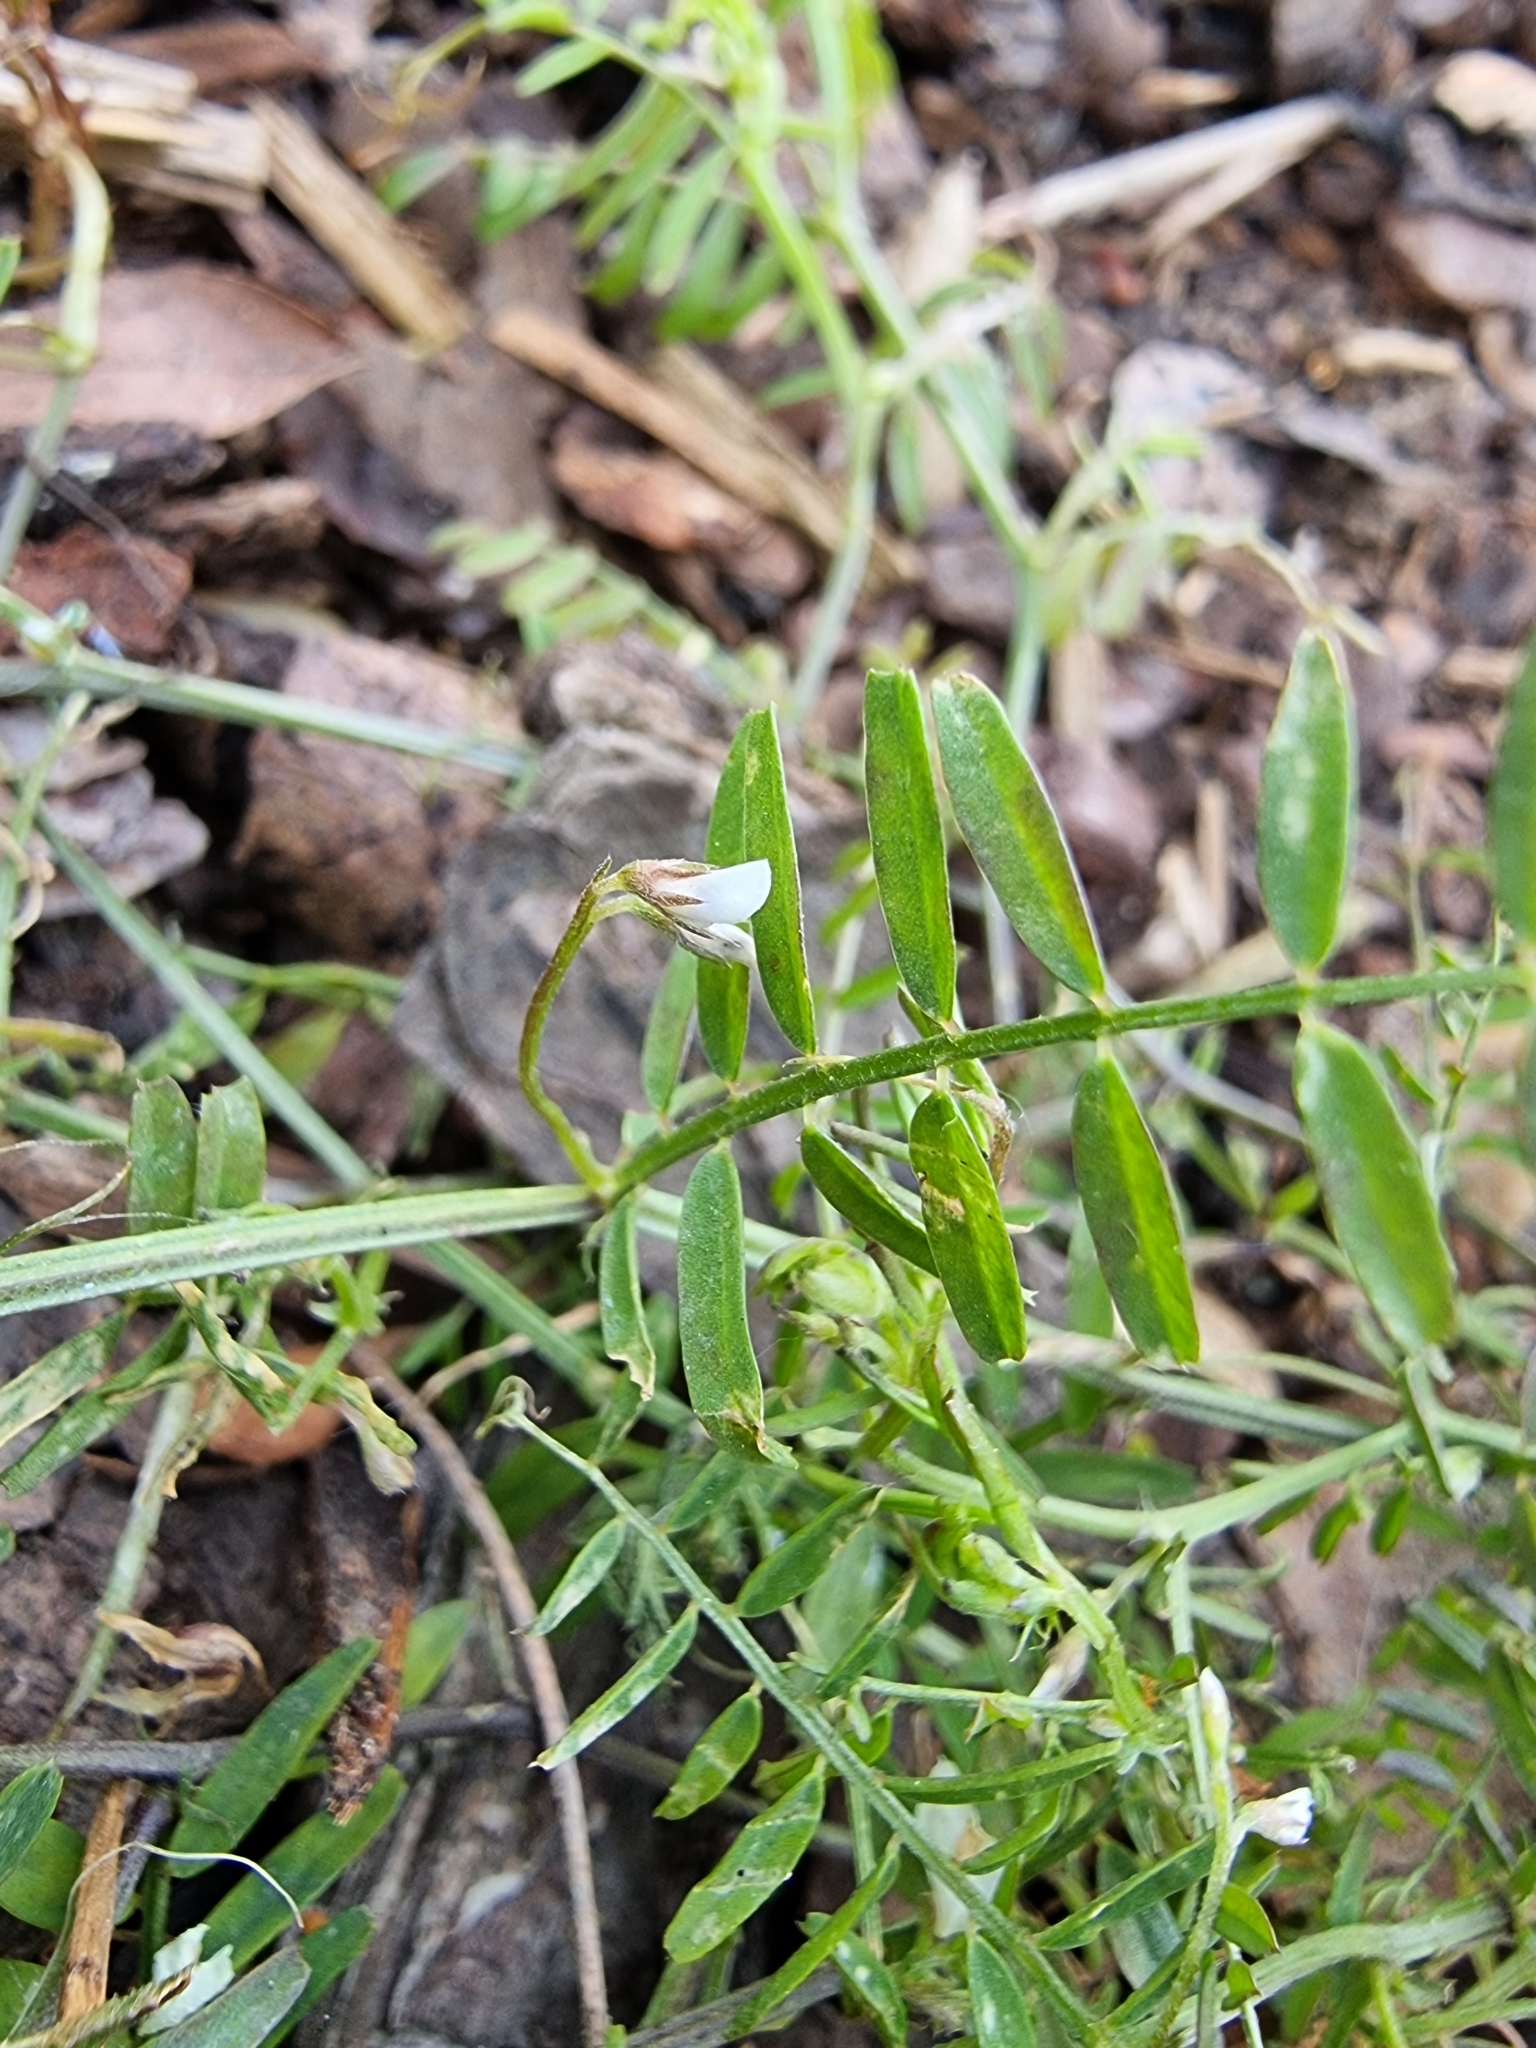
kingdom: Plantae
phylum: Tracheophyta
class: Magnoliopsida
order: Fabales
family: Fabaceae
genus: Vicia
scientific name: Vicia hirsuta
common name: Tiny vetch
